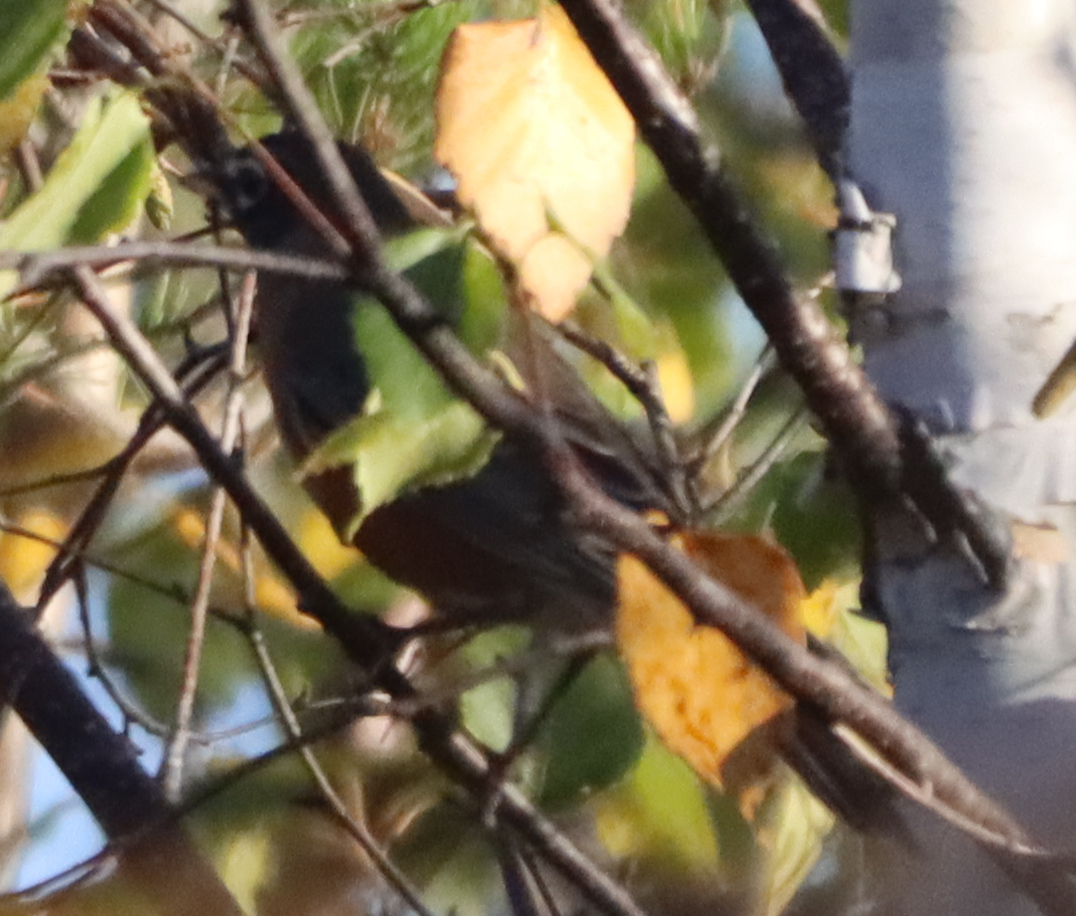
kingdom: Animalia
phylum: Chordata
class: Aves
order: Passeriformes
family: Turdidae
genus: Turdus
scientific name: Turdus migratorius
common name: American robin
